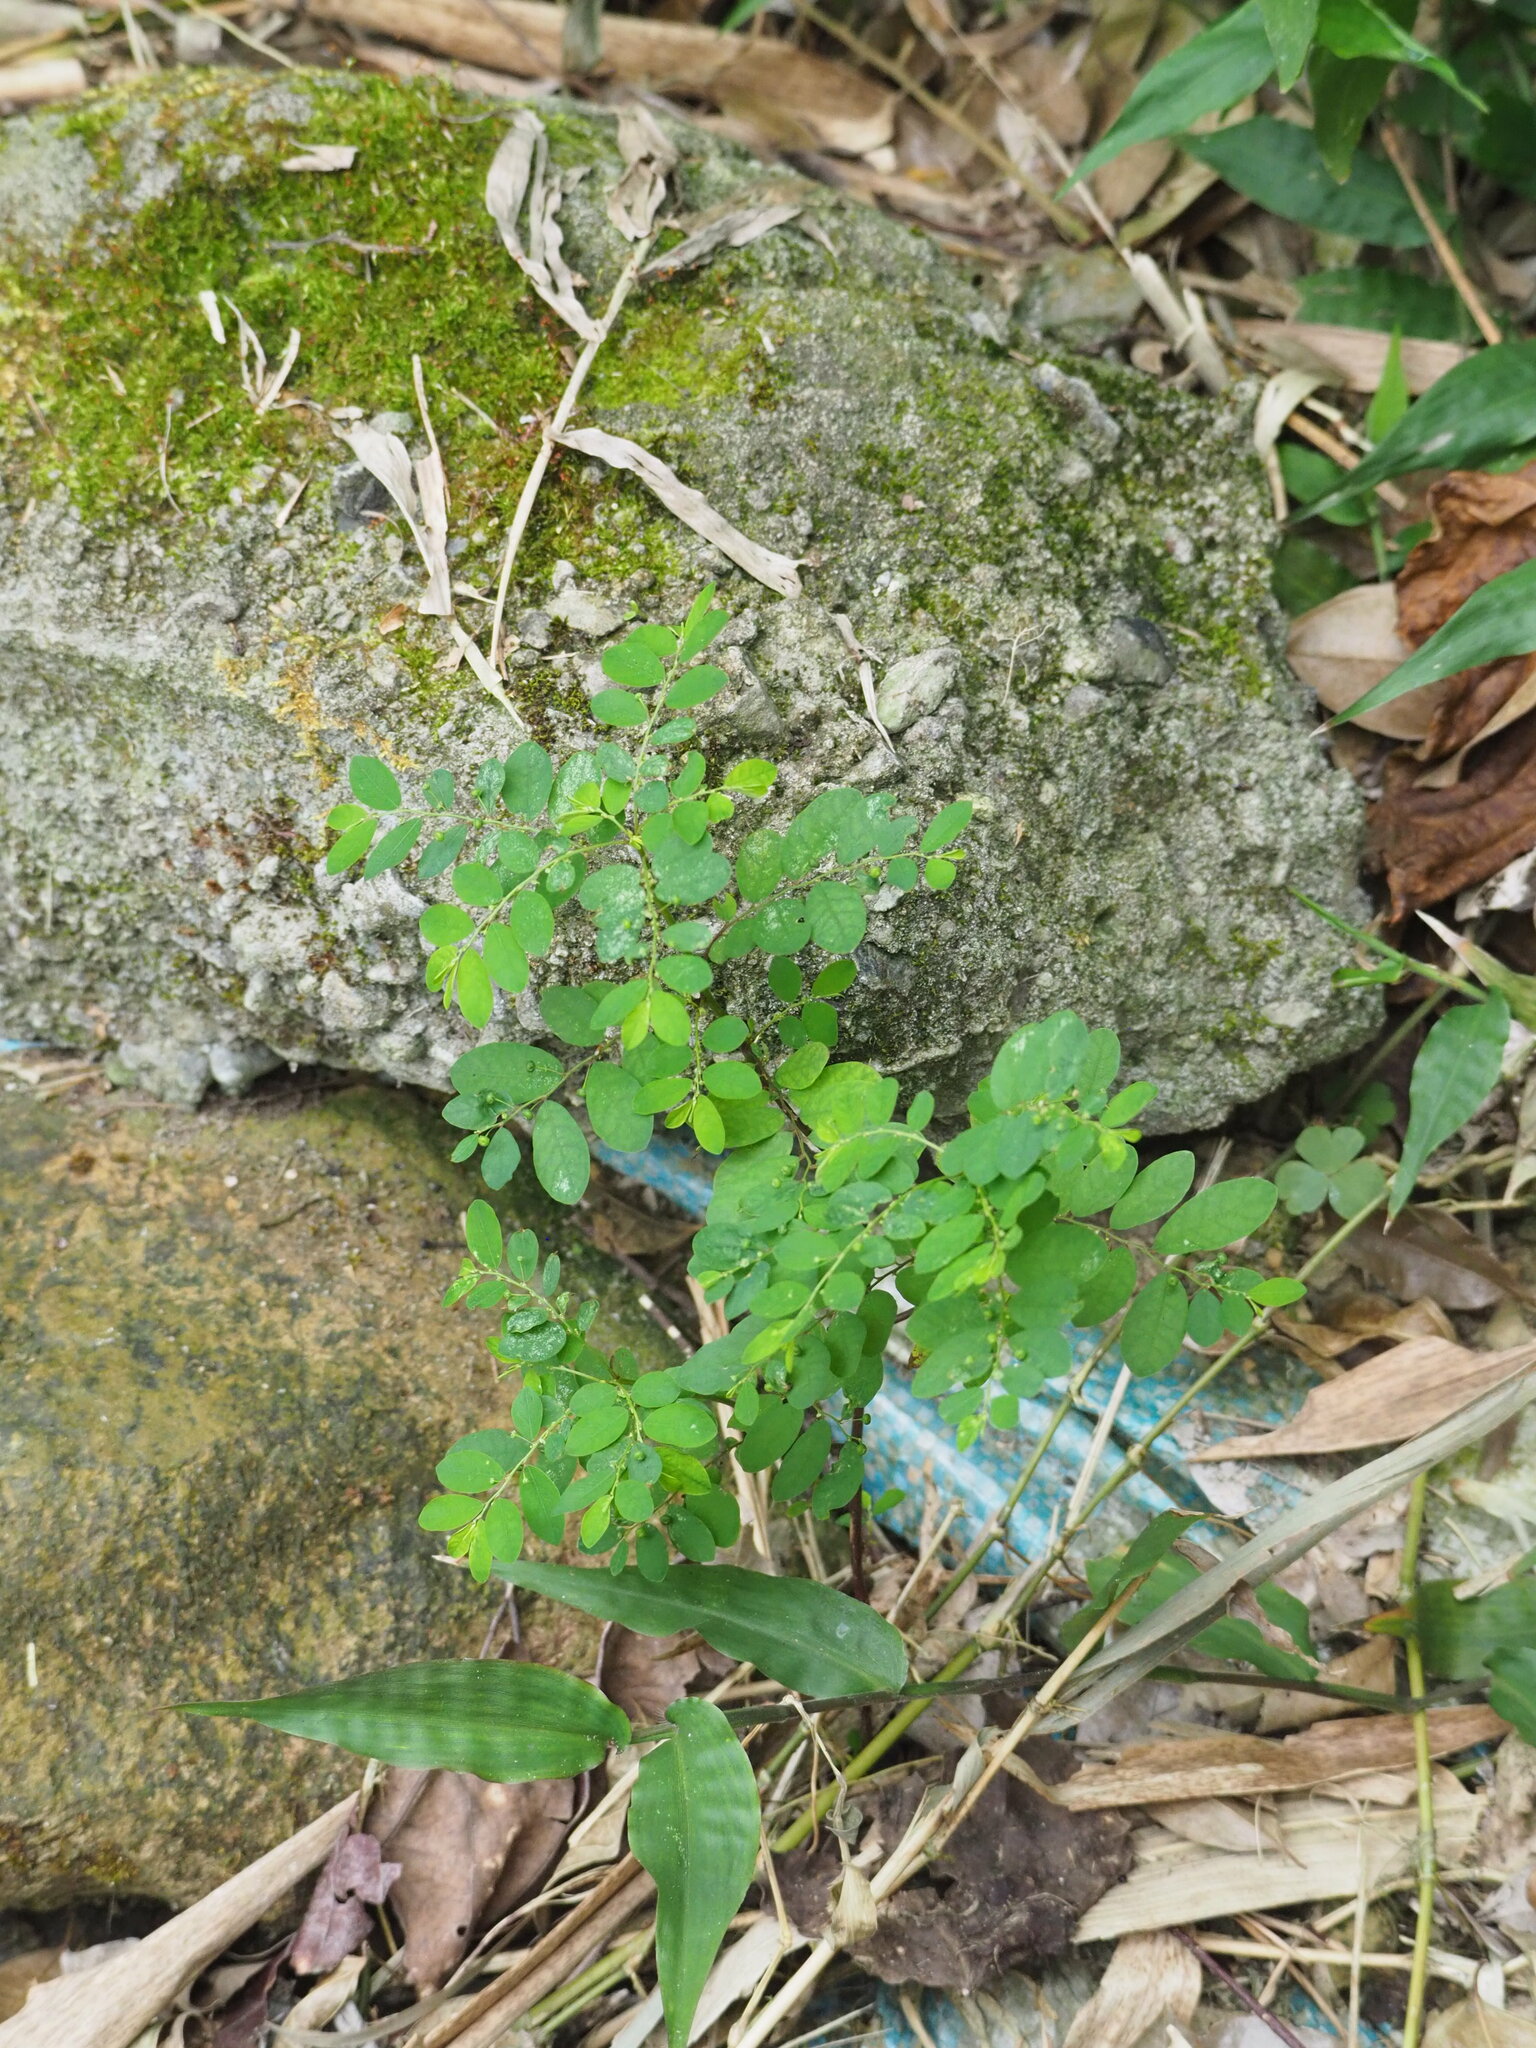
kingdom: Plantae
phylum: Tracheophyta
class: Magnoliopsida
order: Malpighiales
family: Phyllanthaceae
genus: Phyllanthus
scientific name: Phyllanthus tenellus
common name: Mascarene island leaf-flower
